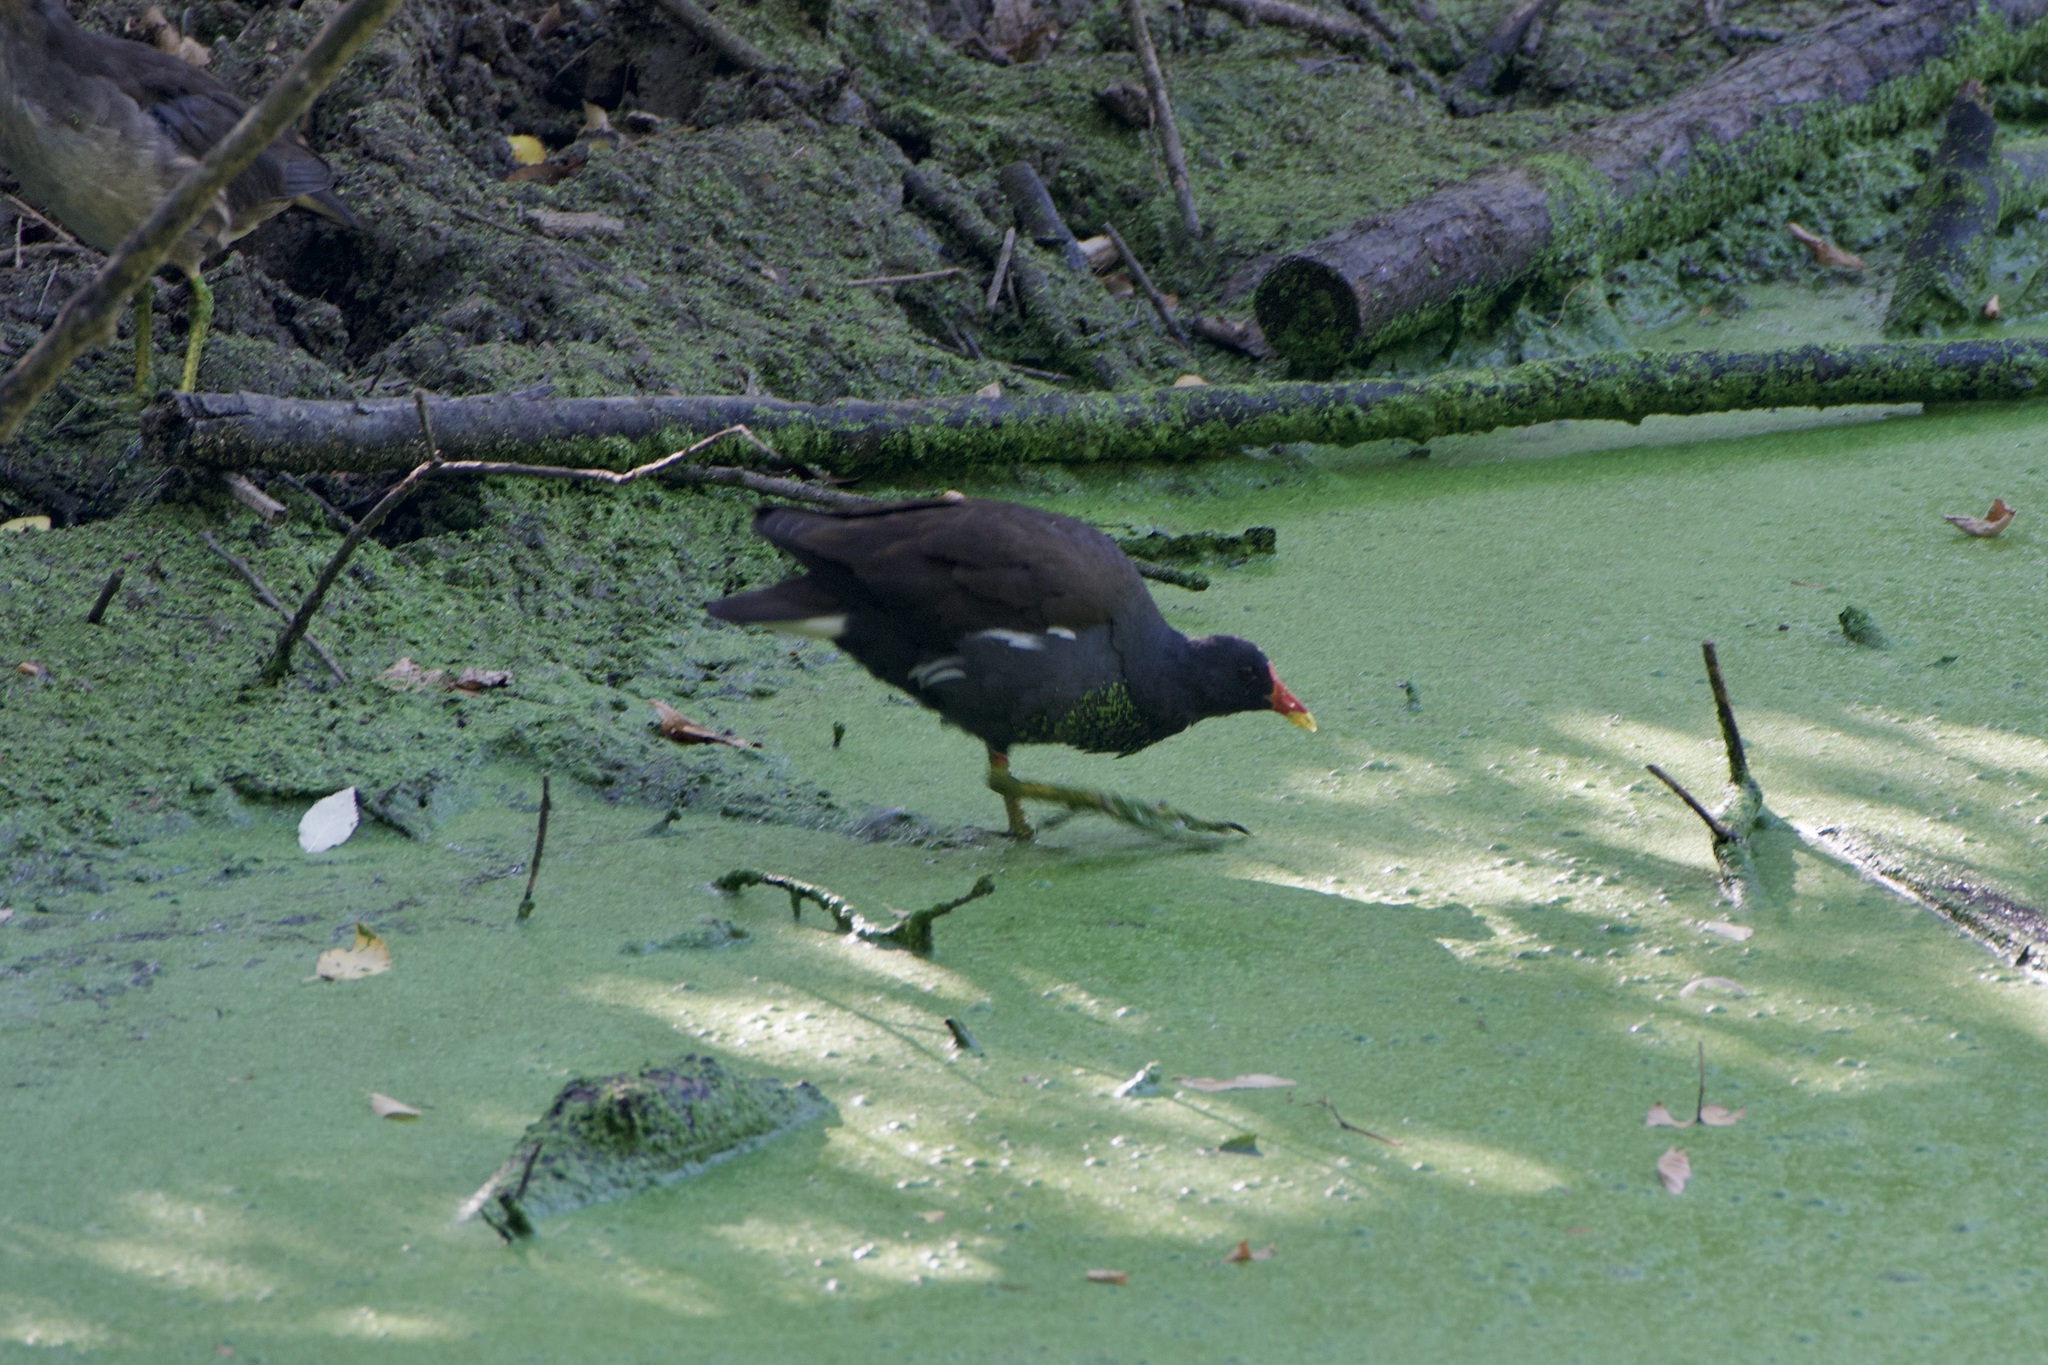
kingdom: Animalia
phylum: Chordata
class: Aves
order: Gruiformes
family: Rallidae
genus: Gallinula
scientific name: Gallinula chloropus
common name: Common moorhen
